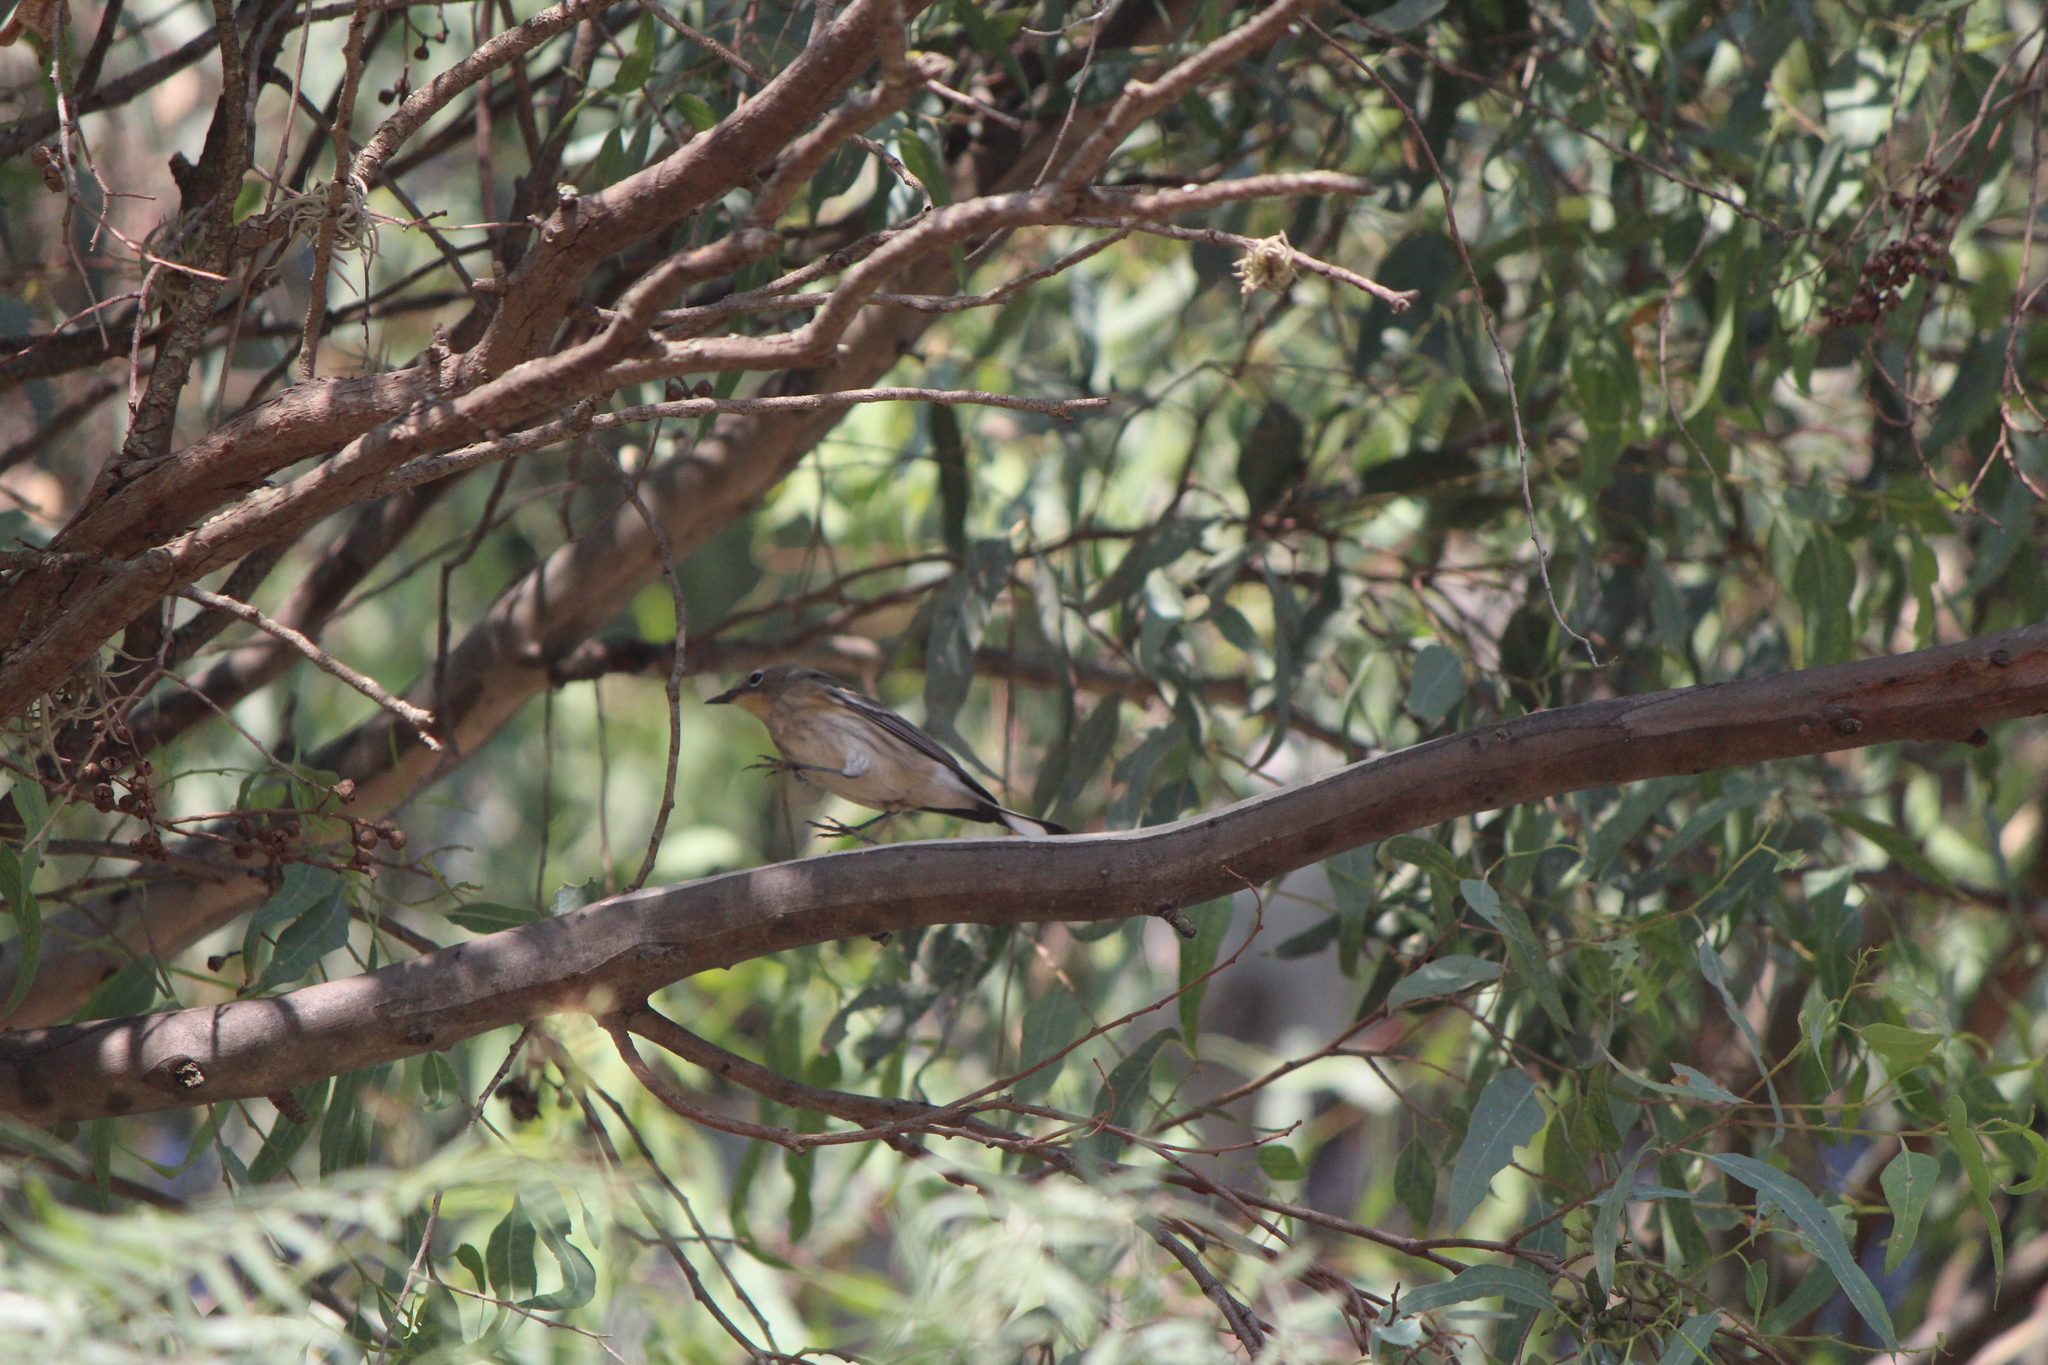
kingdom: Animalia
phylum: Chordata
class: Aves
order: Passeriformes
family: Parulidae
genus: Setophaga
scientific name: Setophaga auduboni
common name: Audubon's warbler
